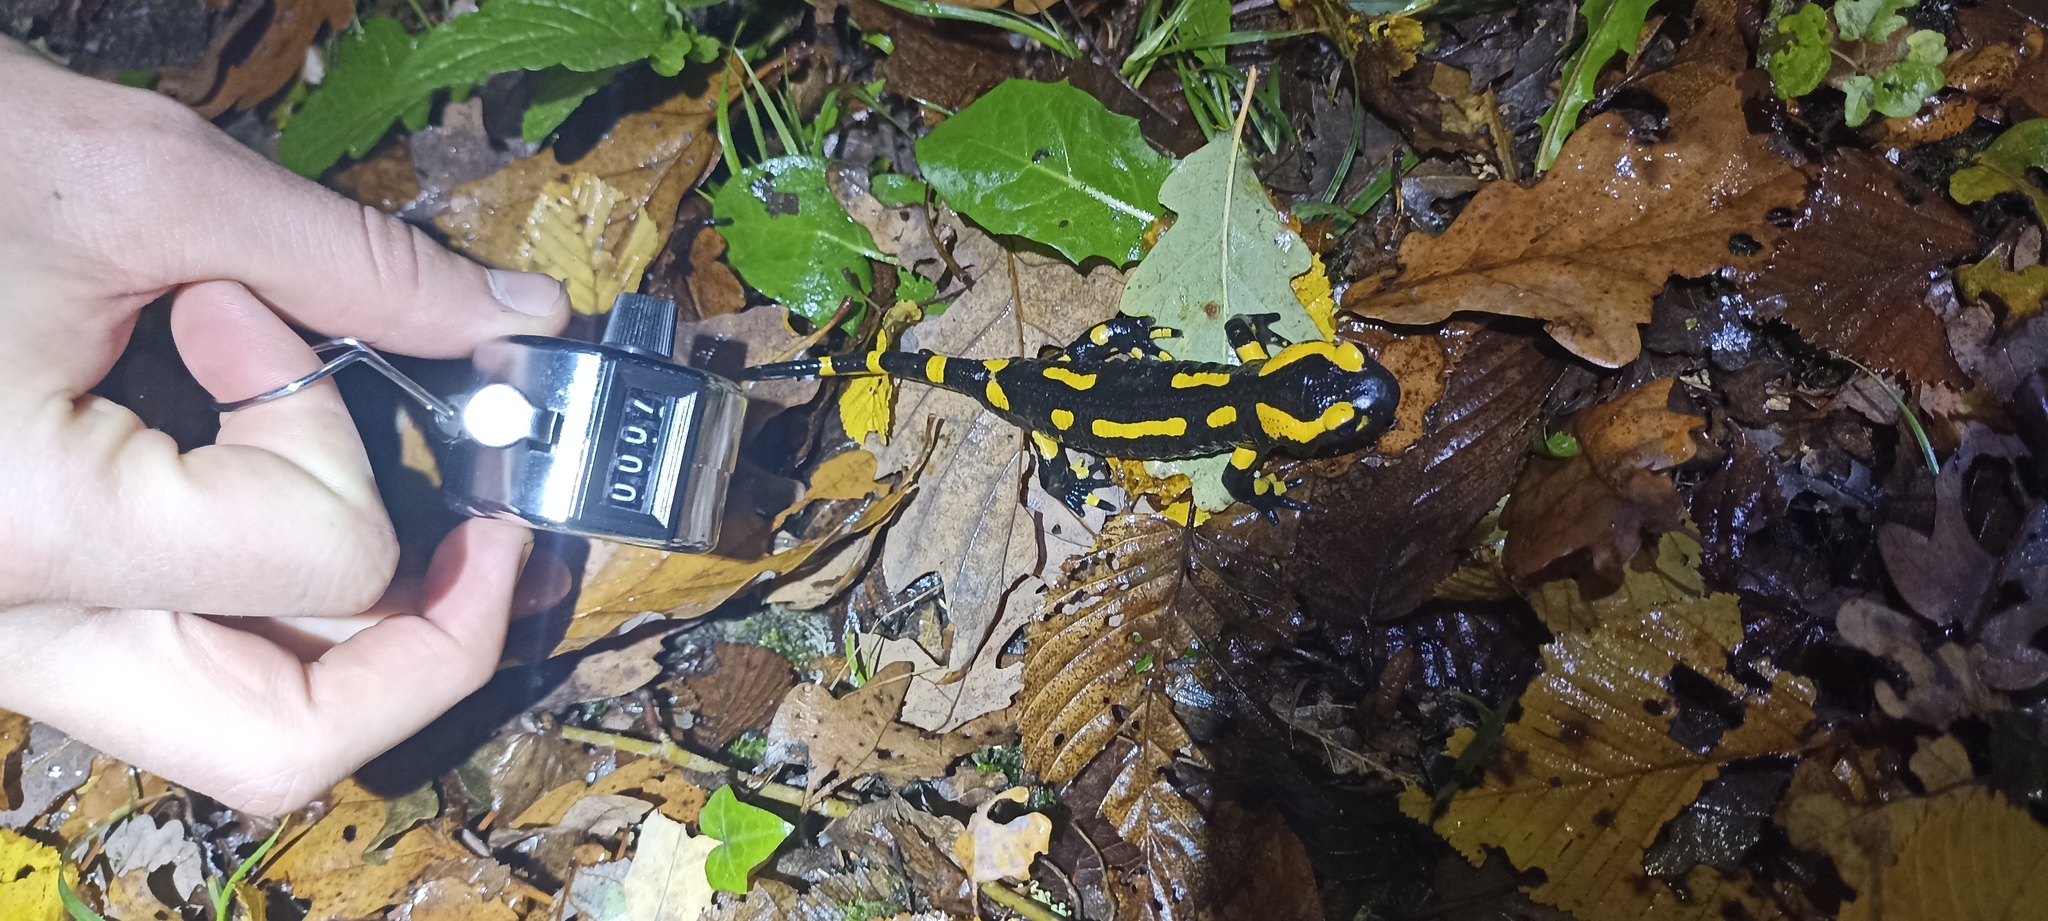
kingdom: Animalia
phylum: Chordata
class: Amphibia
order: Caudata
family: Salamandridae
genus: Salamandra
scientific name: Salamandra salamandra
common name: Fire salamander
